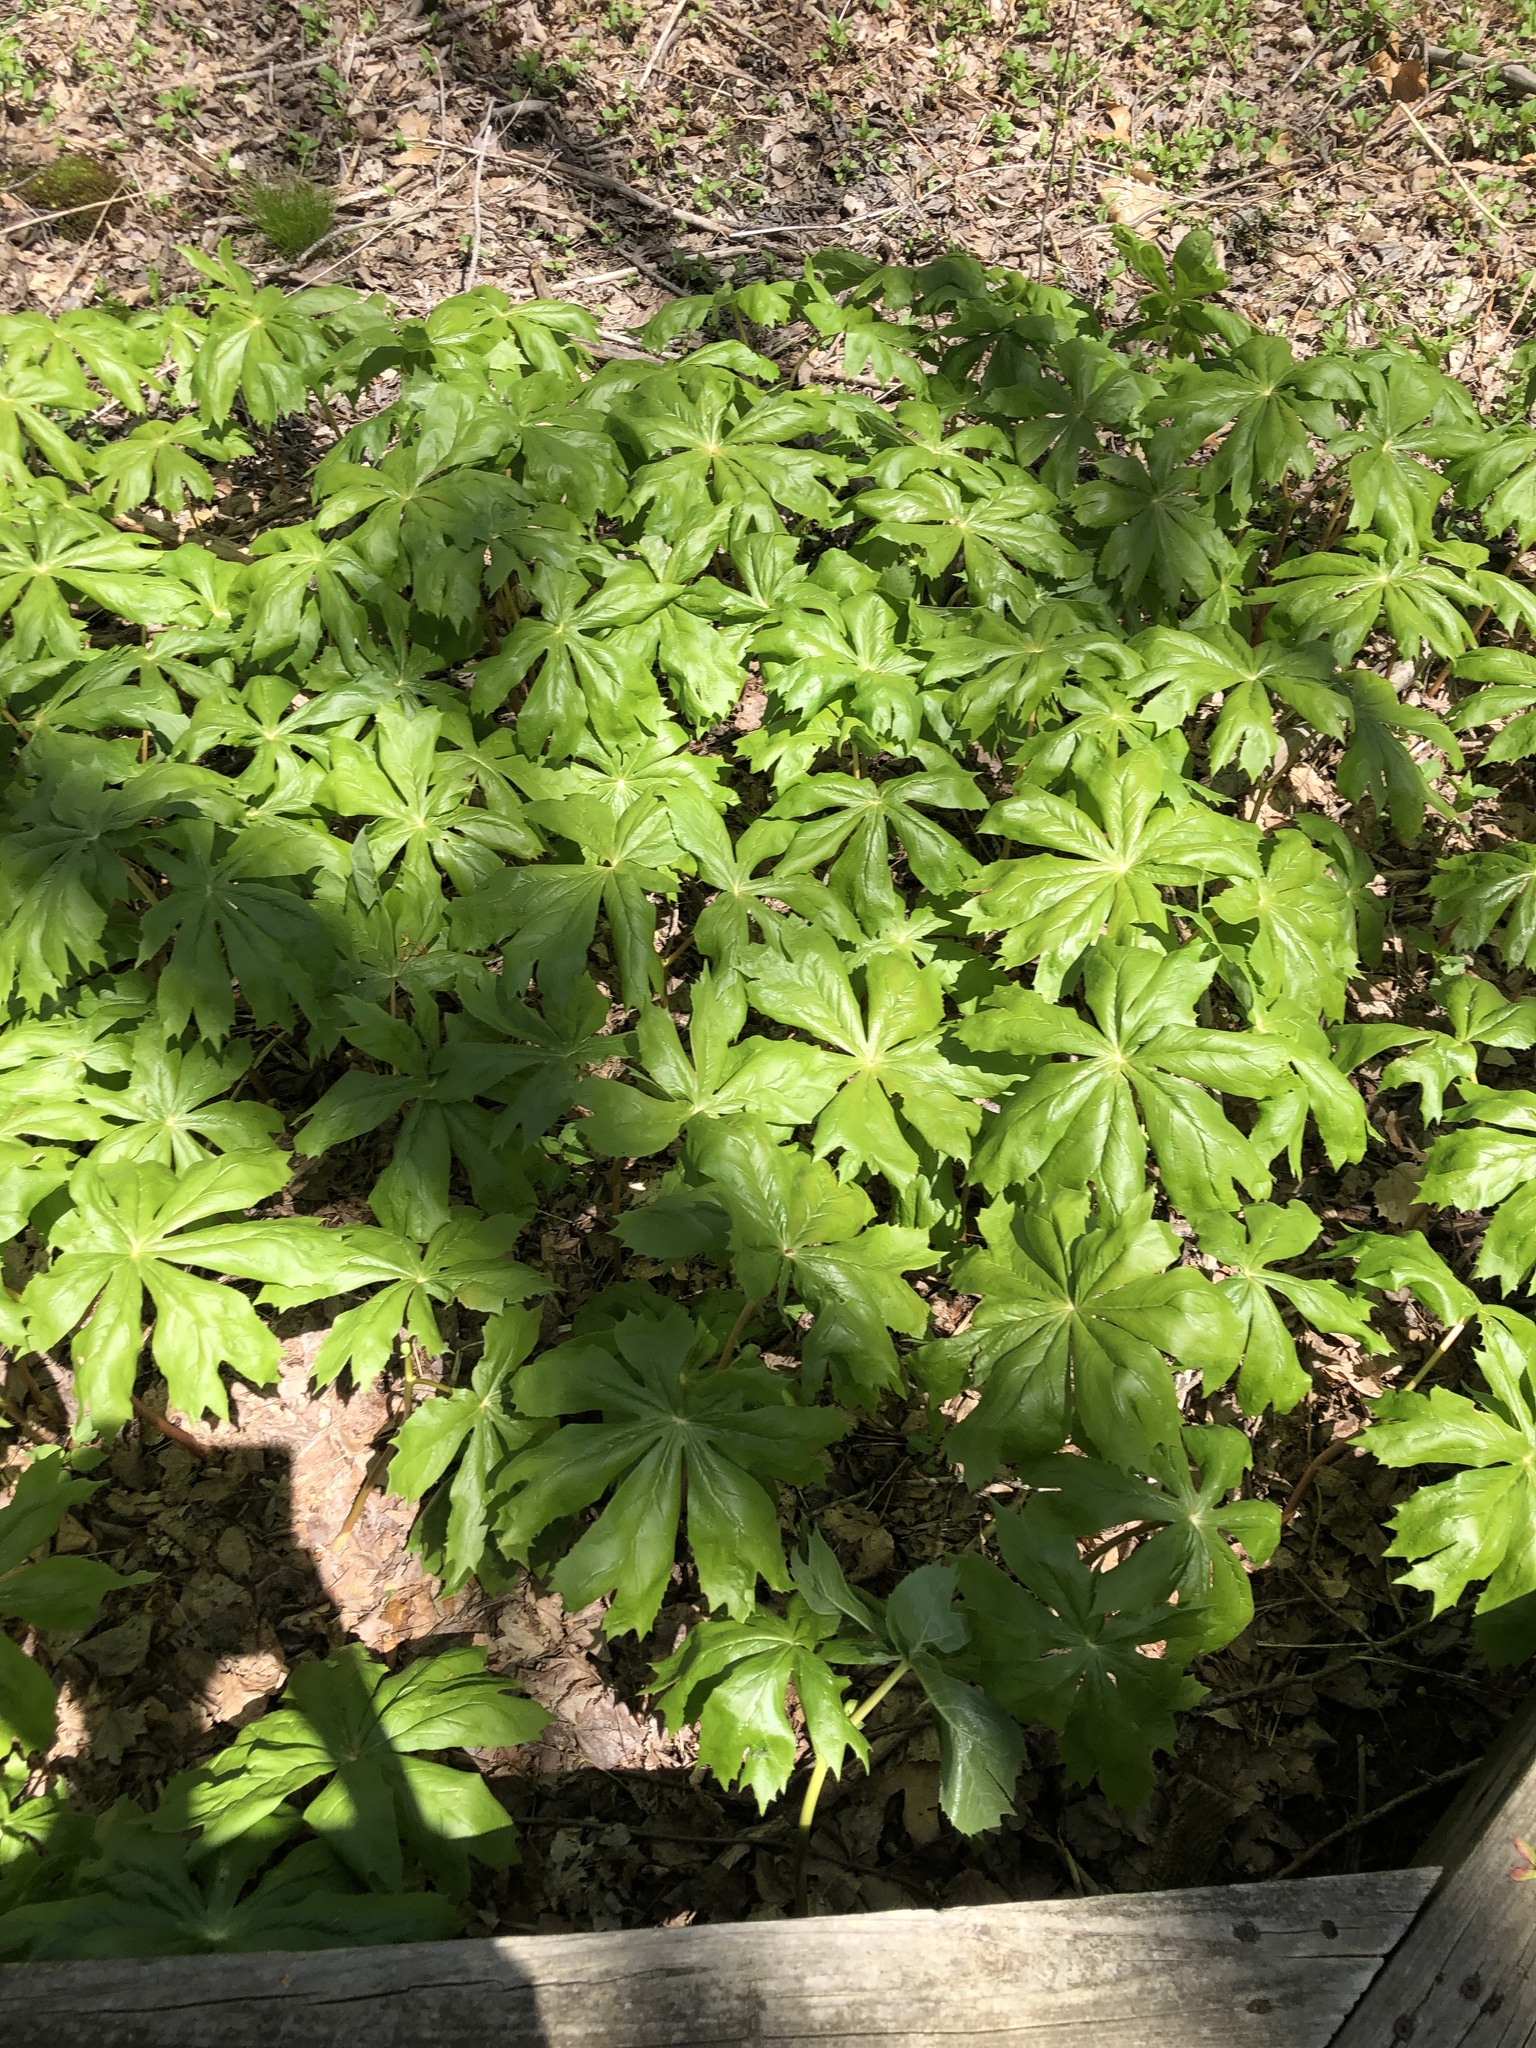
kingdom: Plantae
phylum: Tracheophyta
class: Magnoliopsida
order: Ranunculales
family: Berberidaceae
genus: Podophyllum
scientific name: Podophyllum peltatum
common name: Wild mandrake
